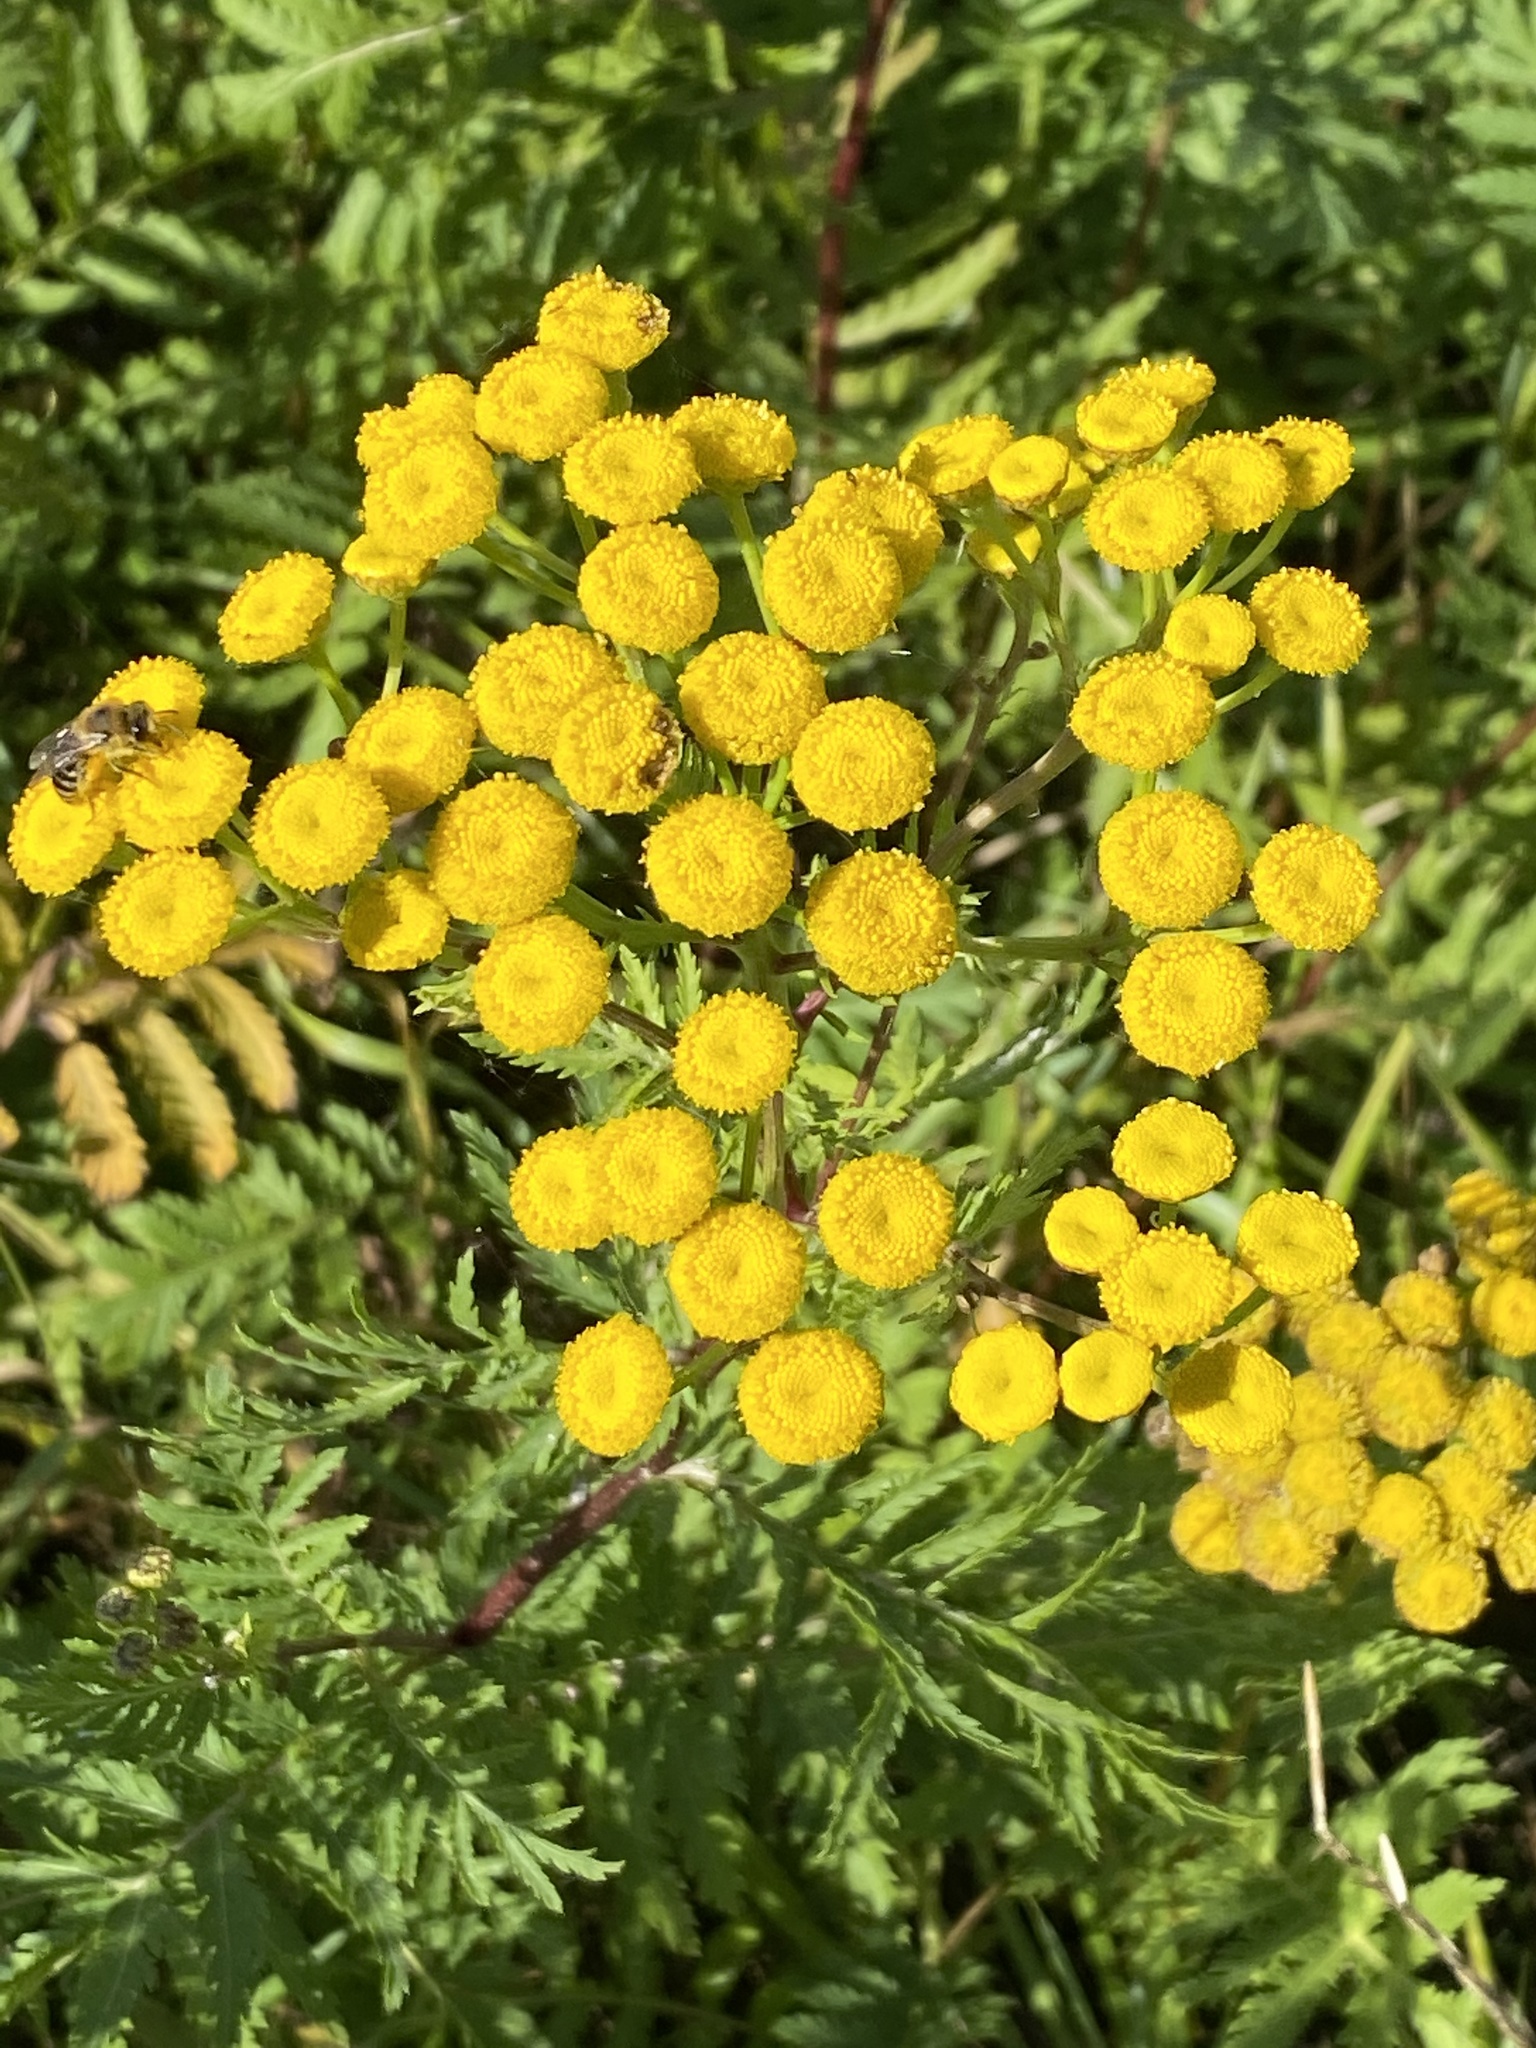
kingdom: Plantae
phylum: Tracheophyta
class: Magnoliopsida
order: Asterales
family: Asteraceae
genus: Tanacetum
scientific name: Tanacetum vulgare
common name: Common tansy
